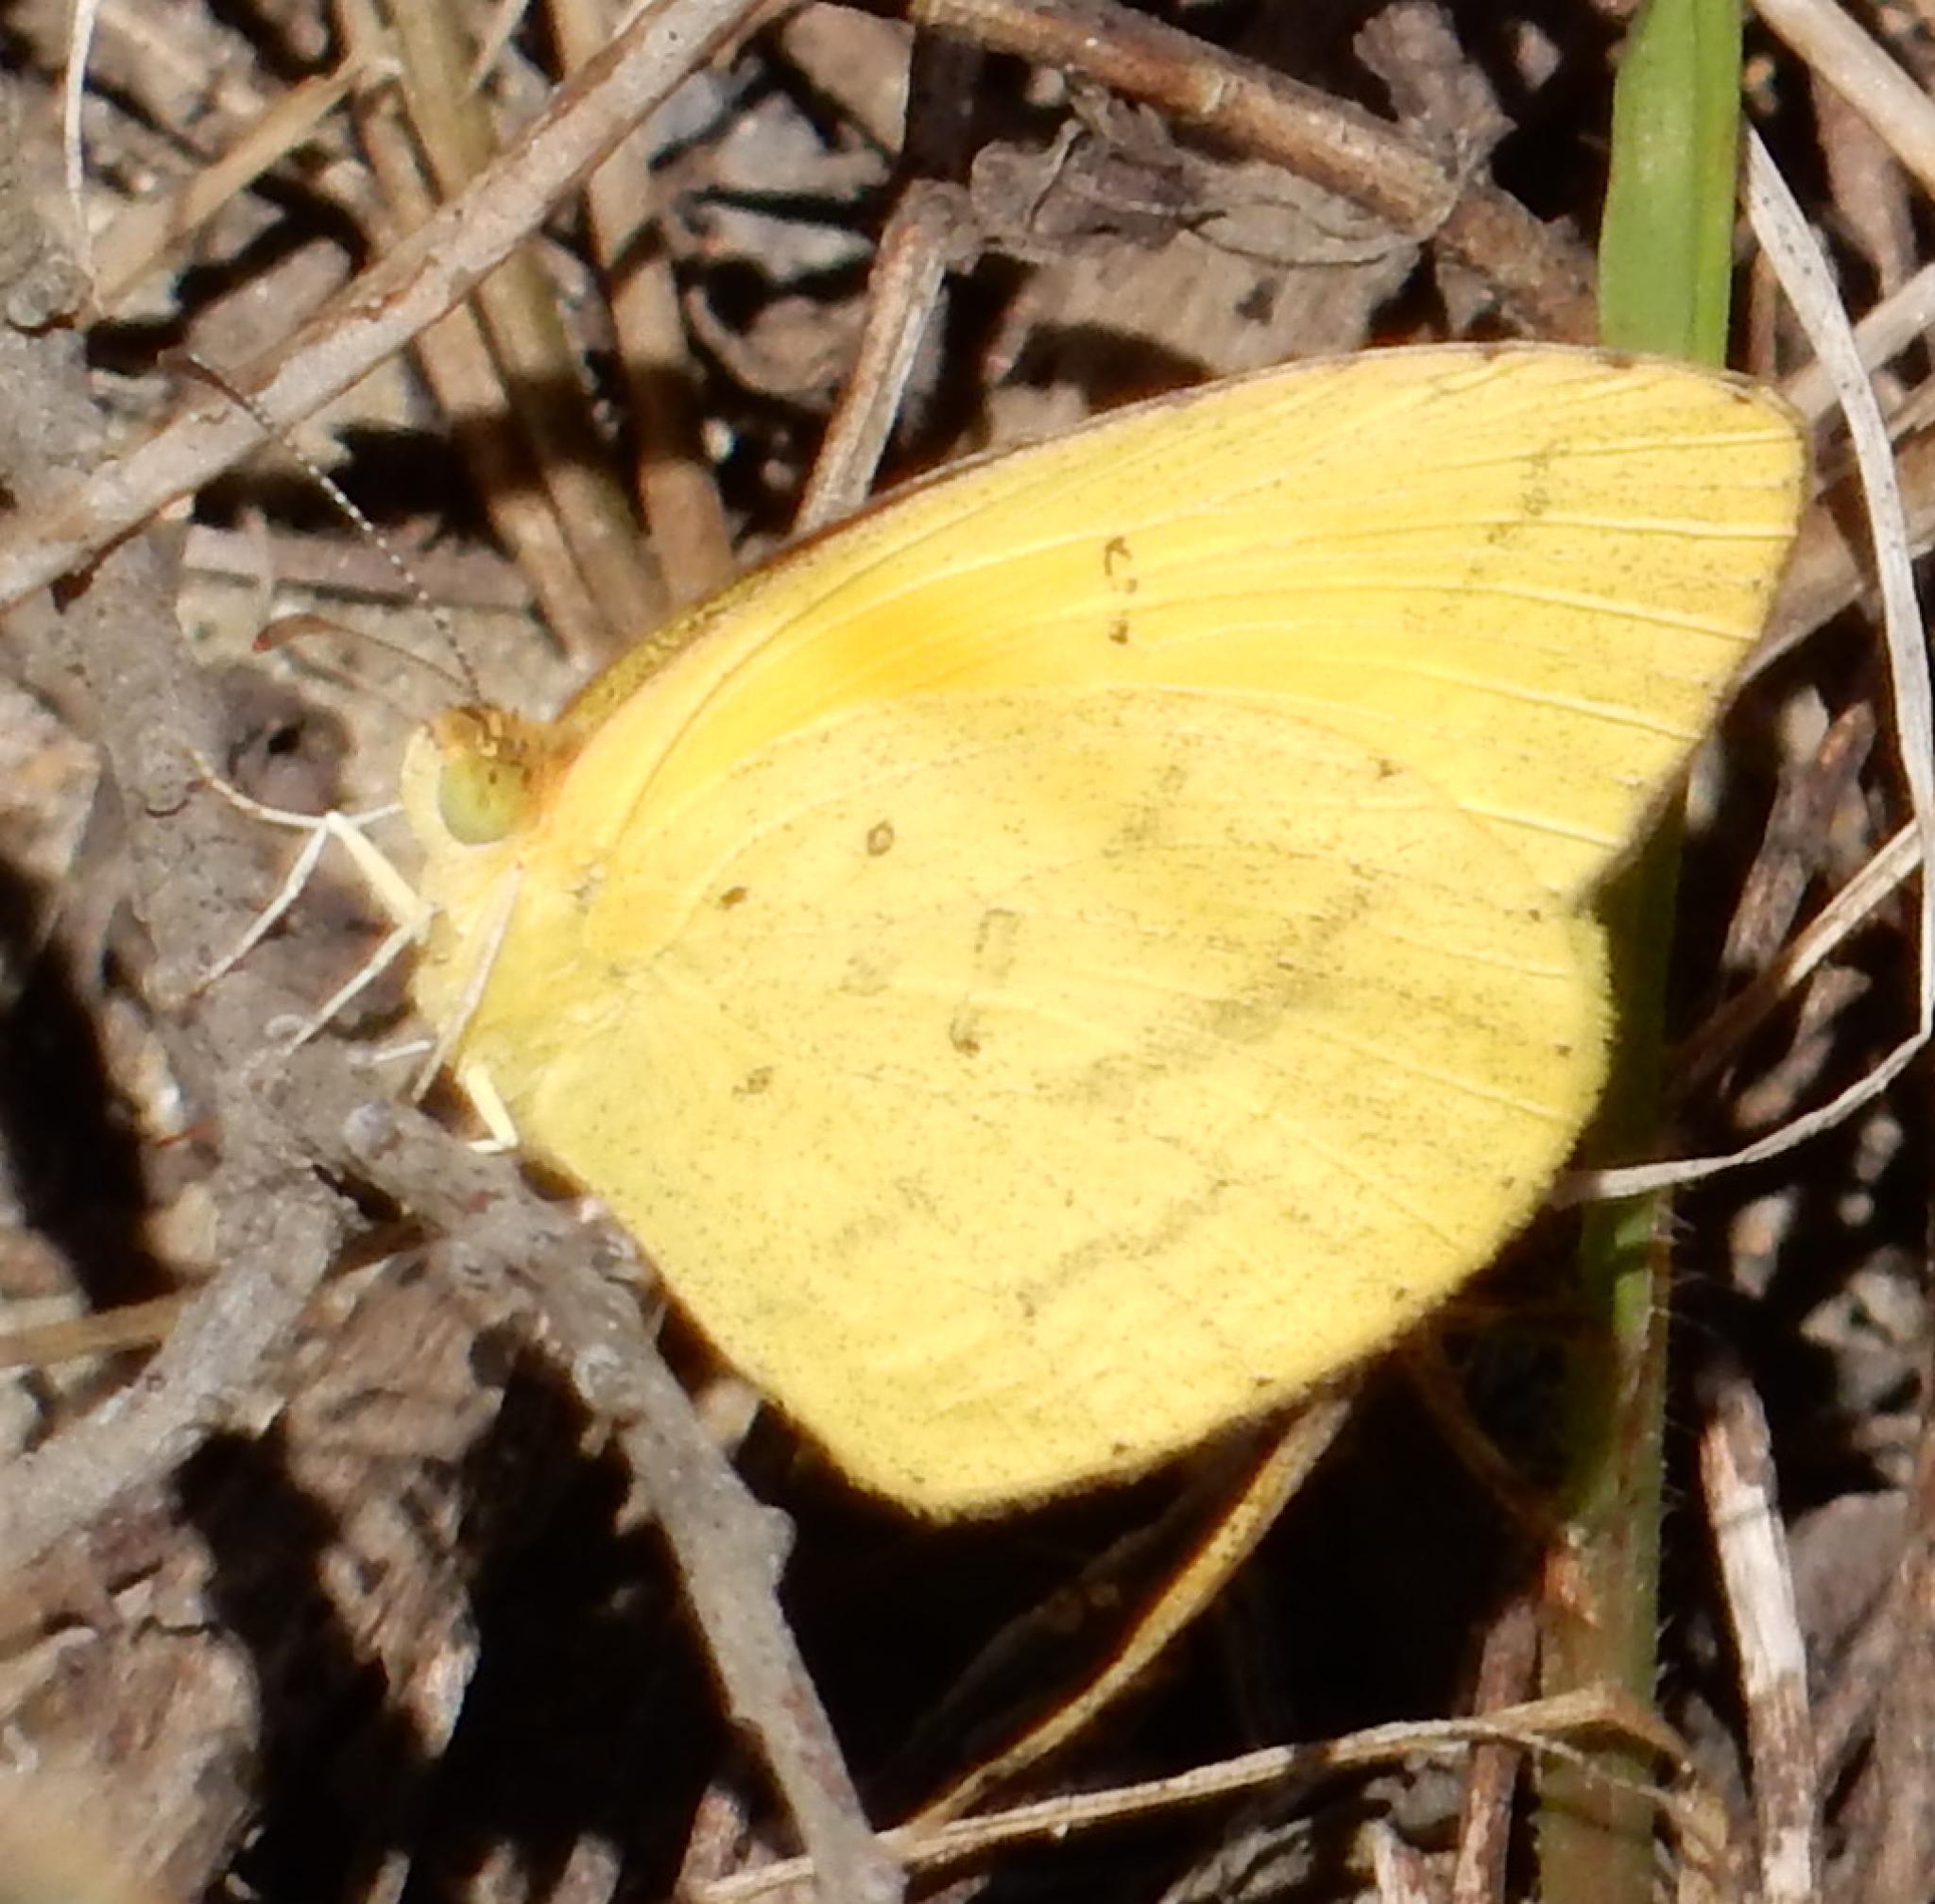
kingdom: Animalia
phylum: Arthropoda
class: Insecta
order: Lepidoptera
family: Pieridae
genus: Eurema
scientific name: Eurema brigitta
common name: Small grass yellow
